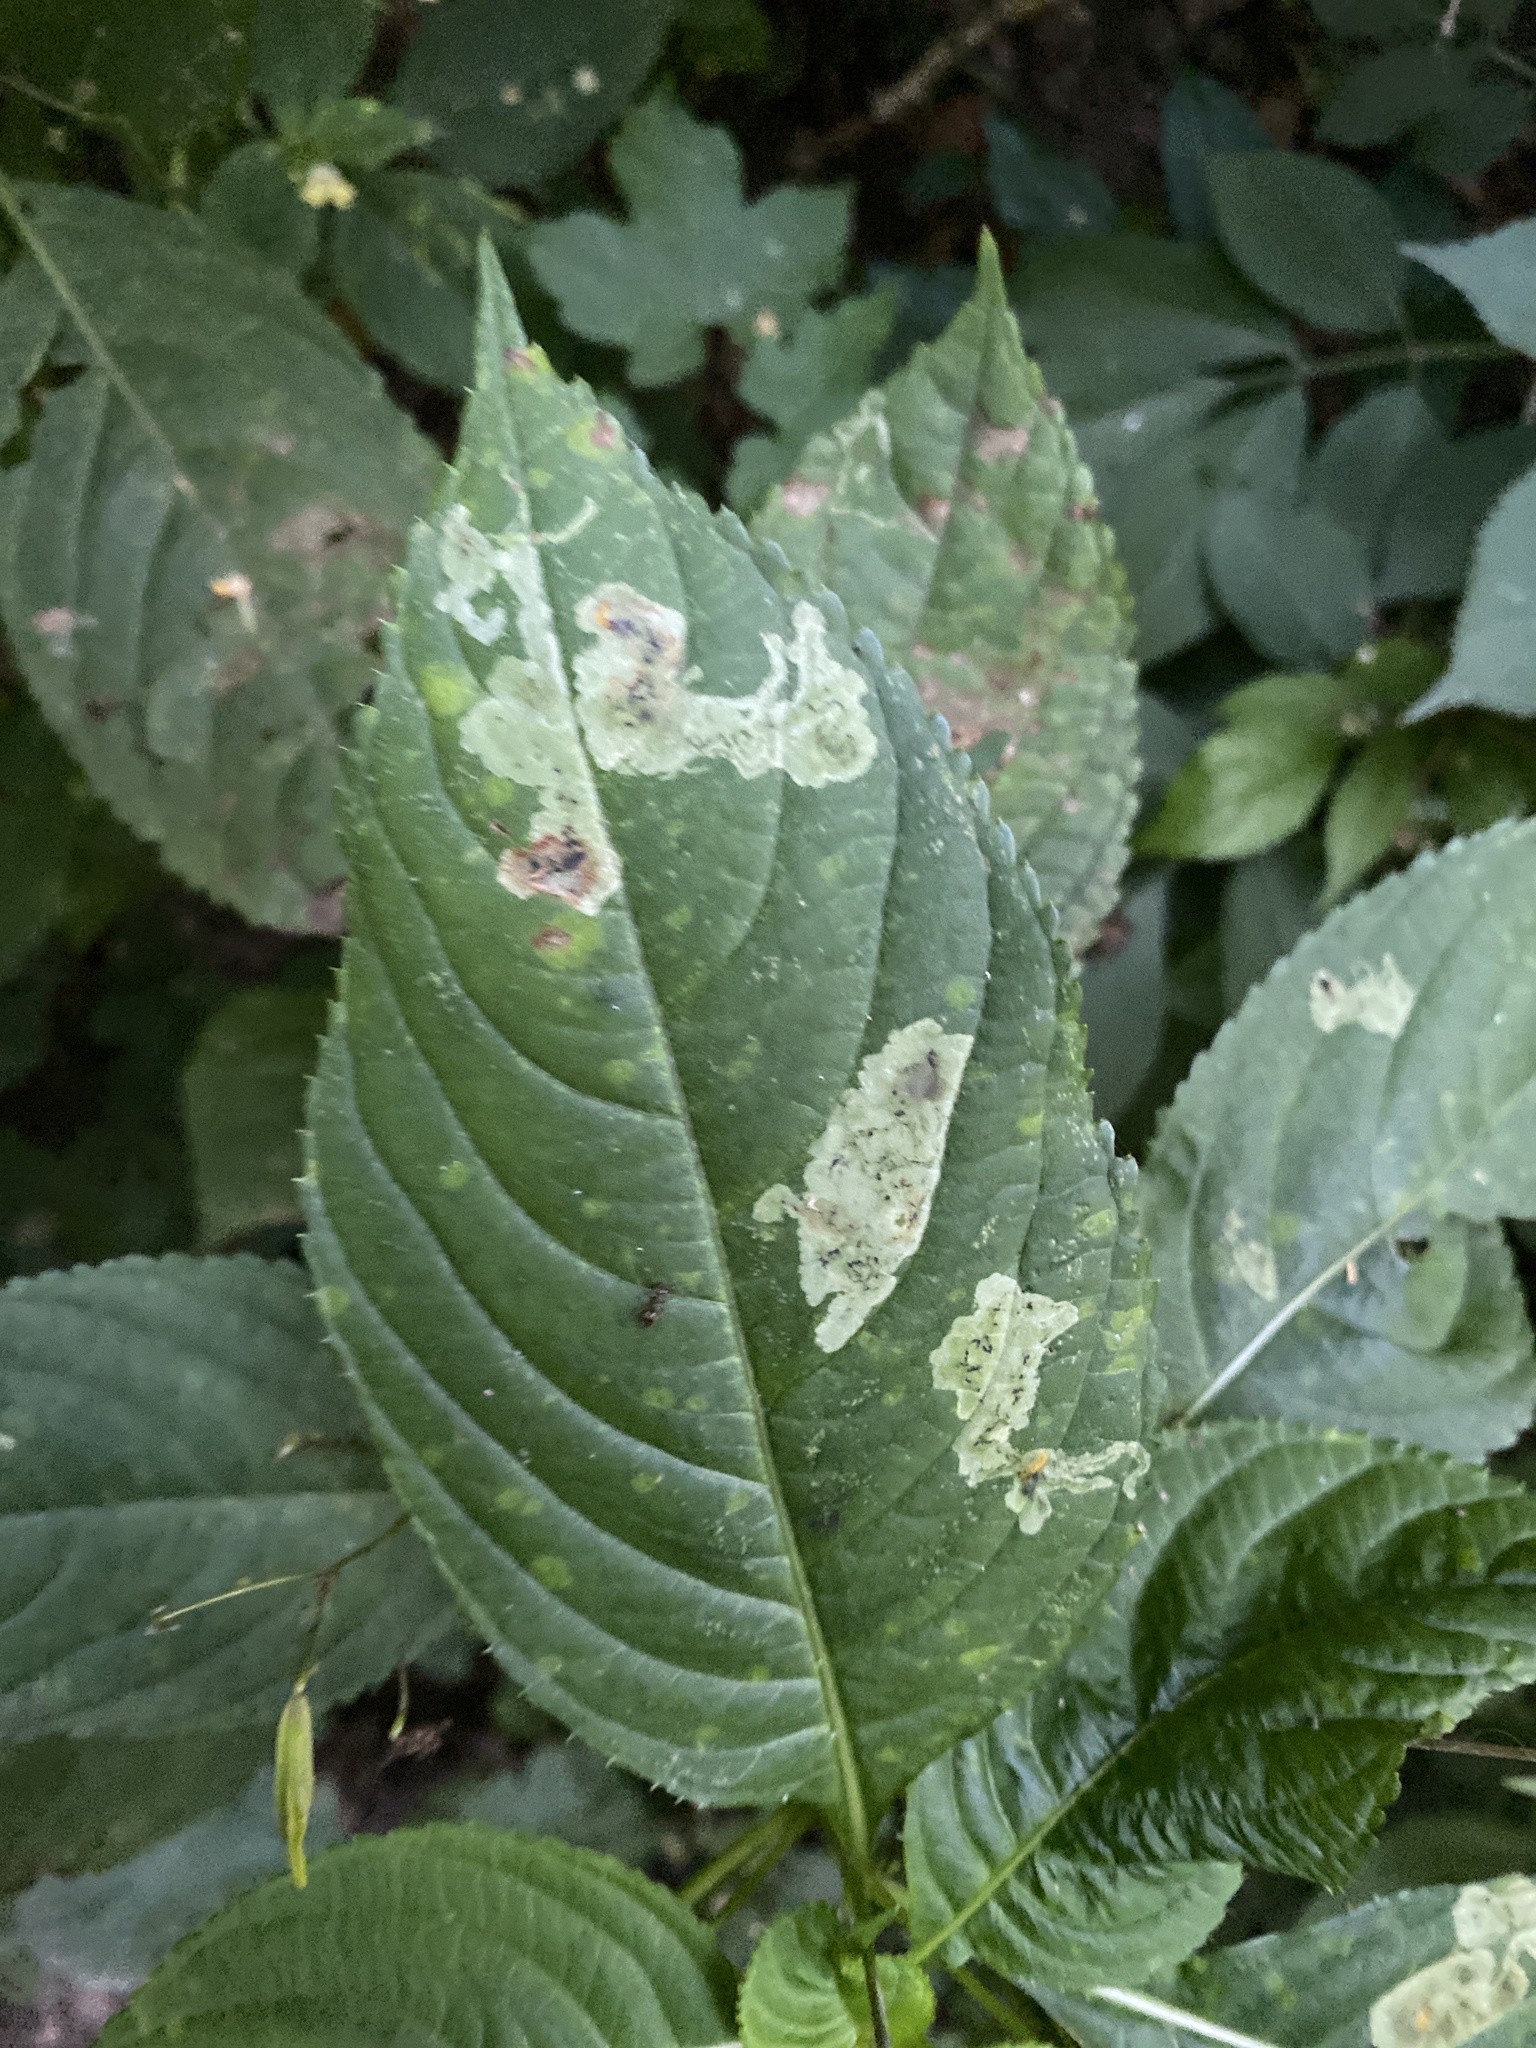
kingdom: Animalia
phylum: Arthropoda
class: Insecta
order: Diptera
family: Agromyzidae
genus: Phytoliriomyza
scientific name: Phytoliriomyza melampyga
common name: Jewelweed leaf-miner fly
